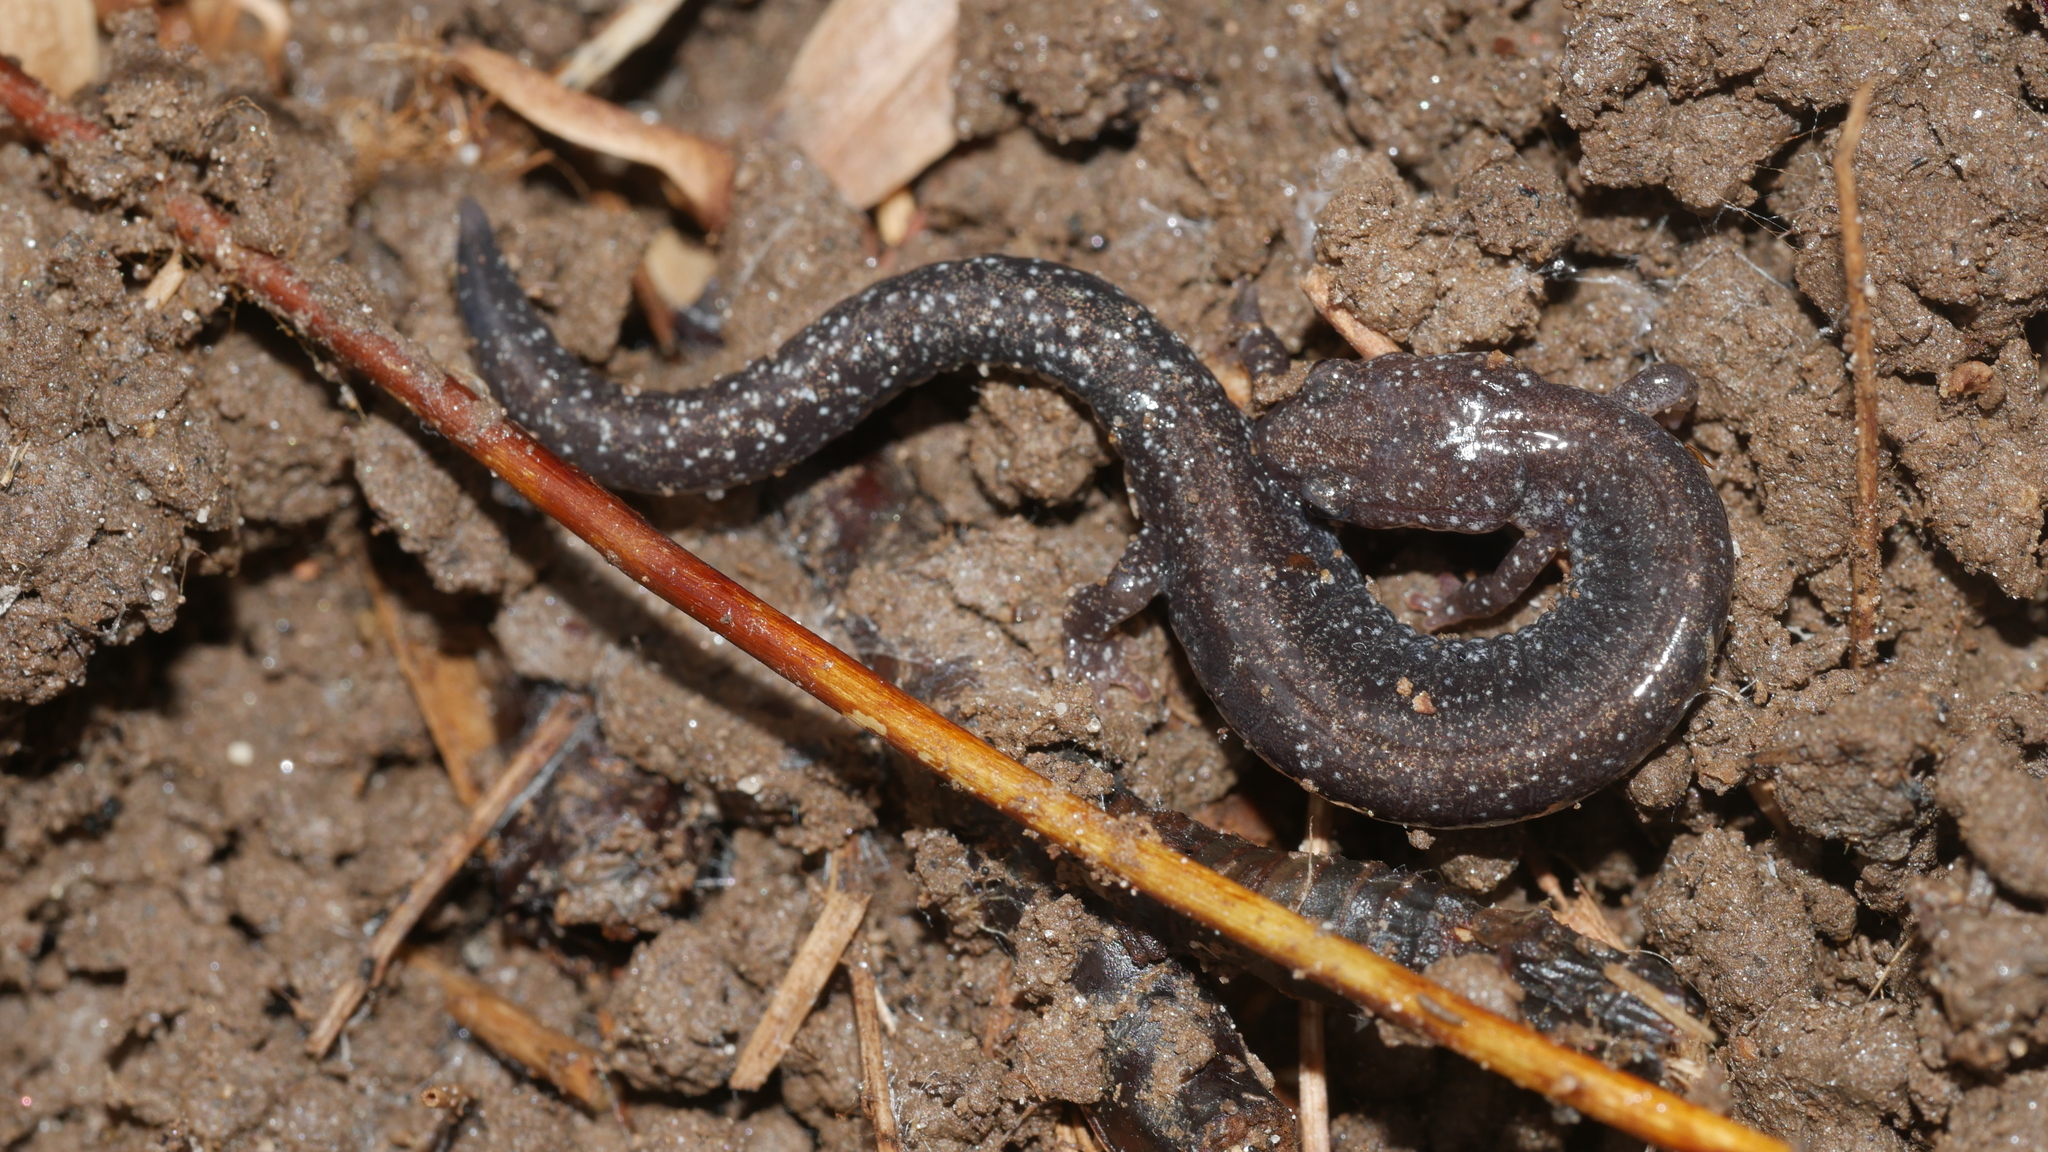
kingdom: Animalia
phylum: Chordata
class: Amphibia
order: Caudata
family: Plethodontidae
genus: Plethodon
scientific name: Plethodon cinereus
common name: Redback salamander
